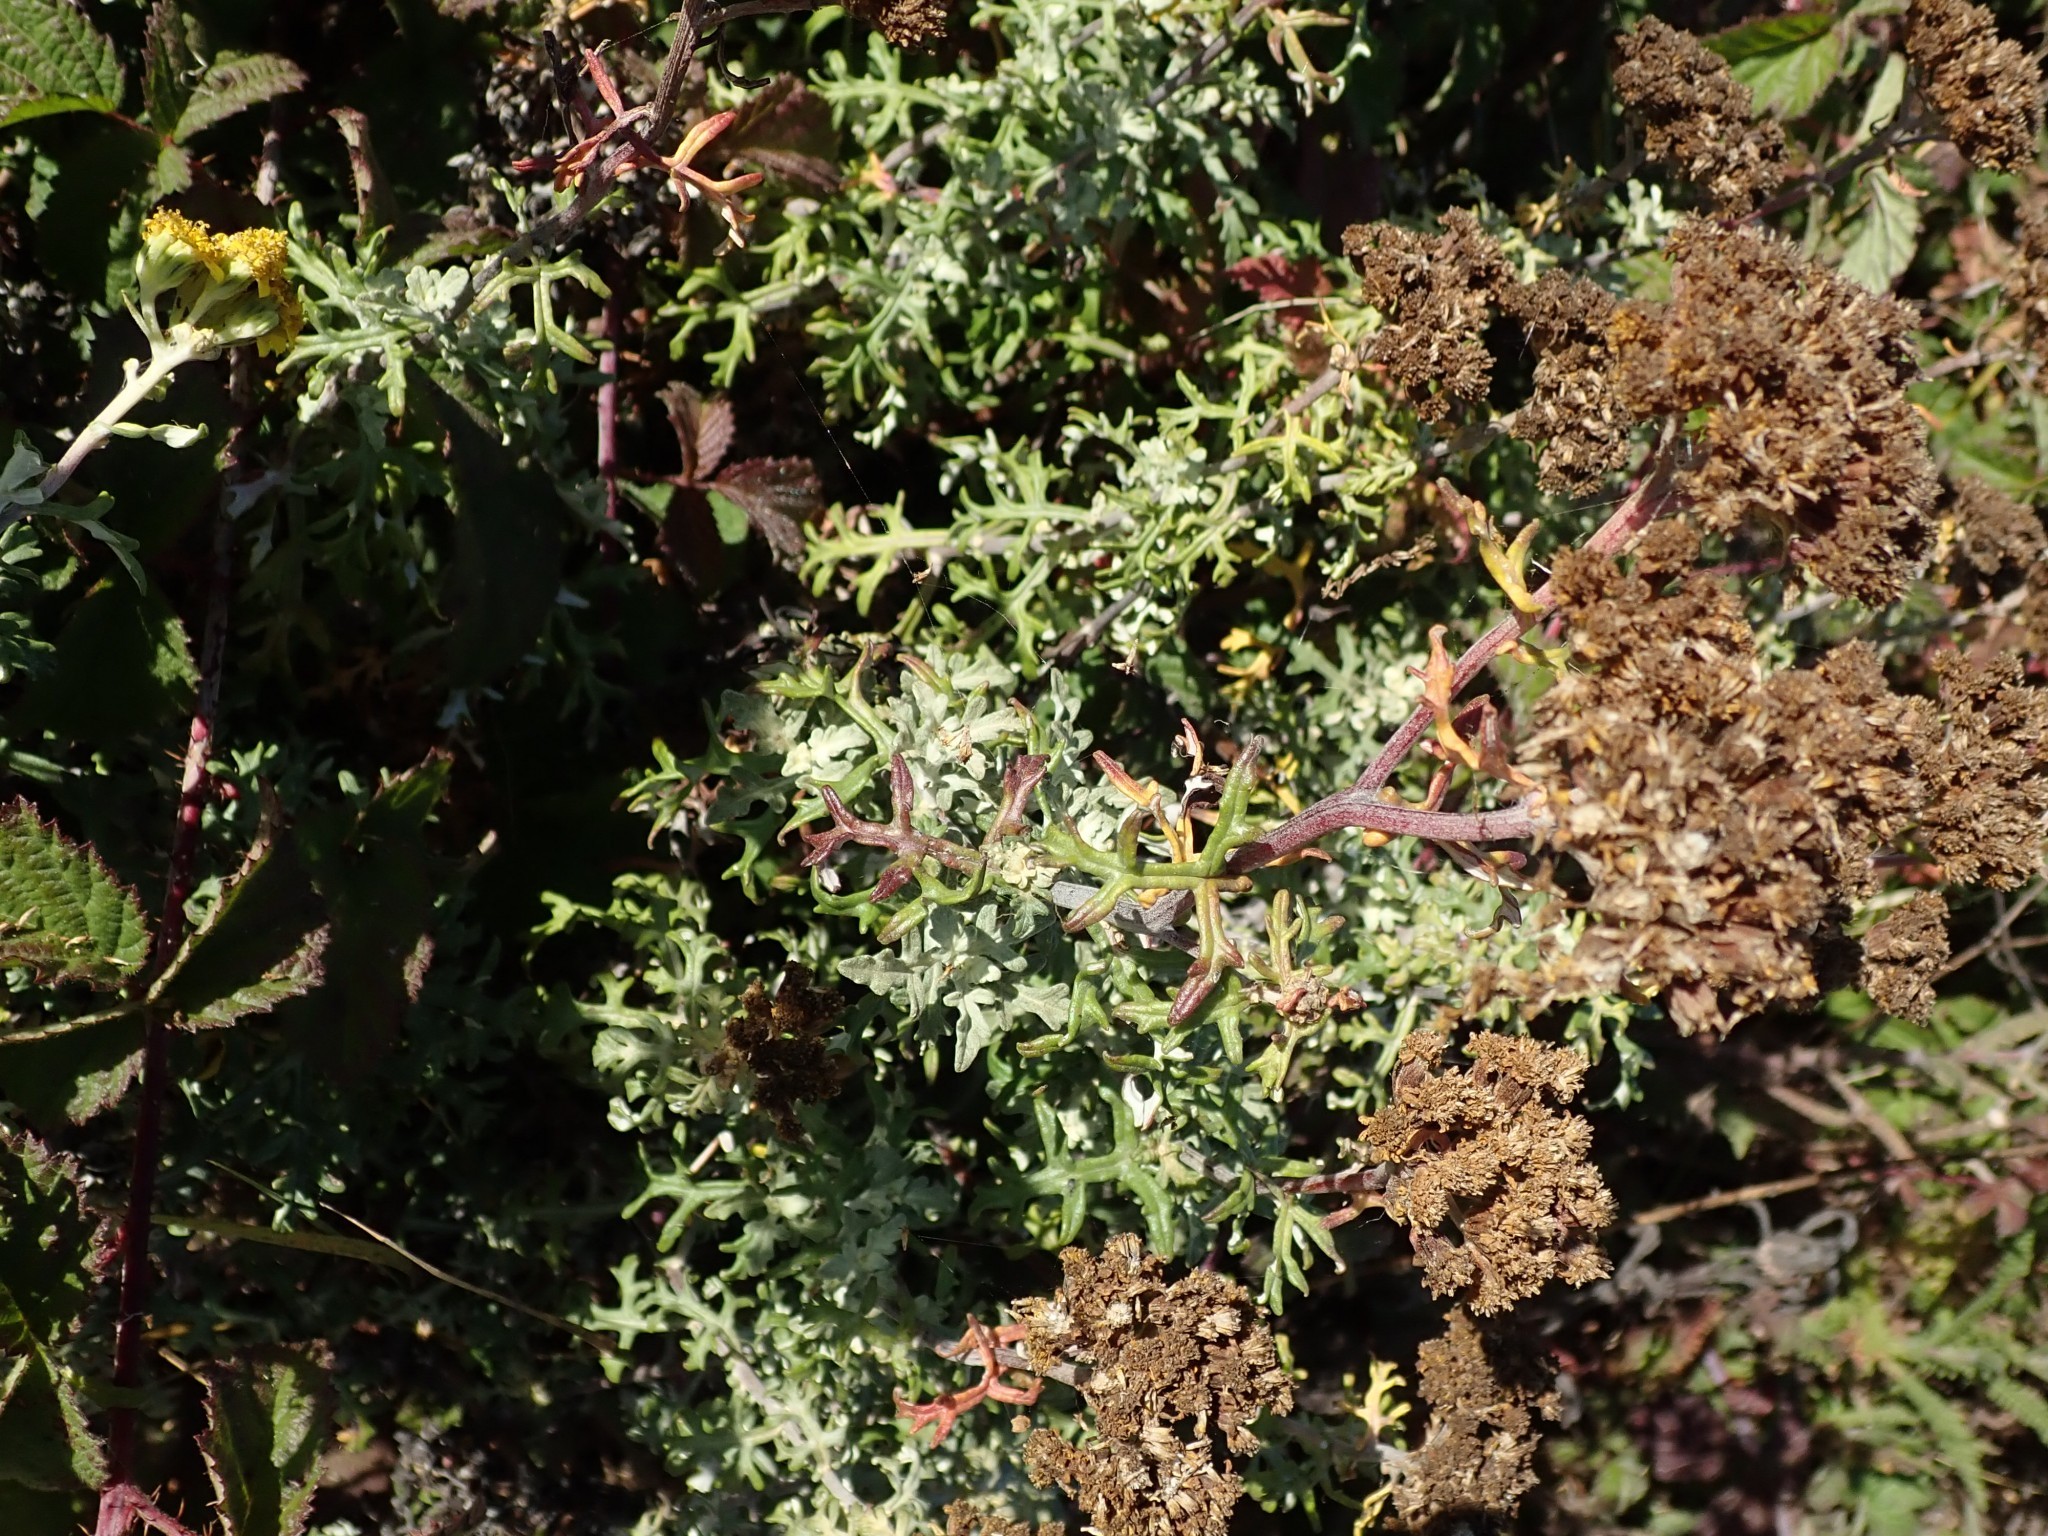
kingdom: Plantae
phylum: Tracheophyta
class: Magnoliopsida
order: Asterales
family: Asteraceae
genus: Eriophyllum
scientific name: Eriophyllum staechadifolium
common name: Lizardtail
